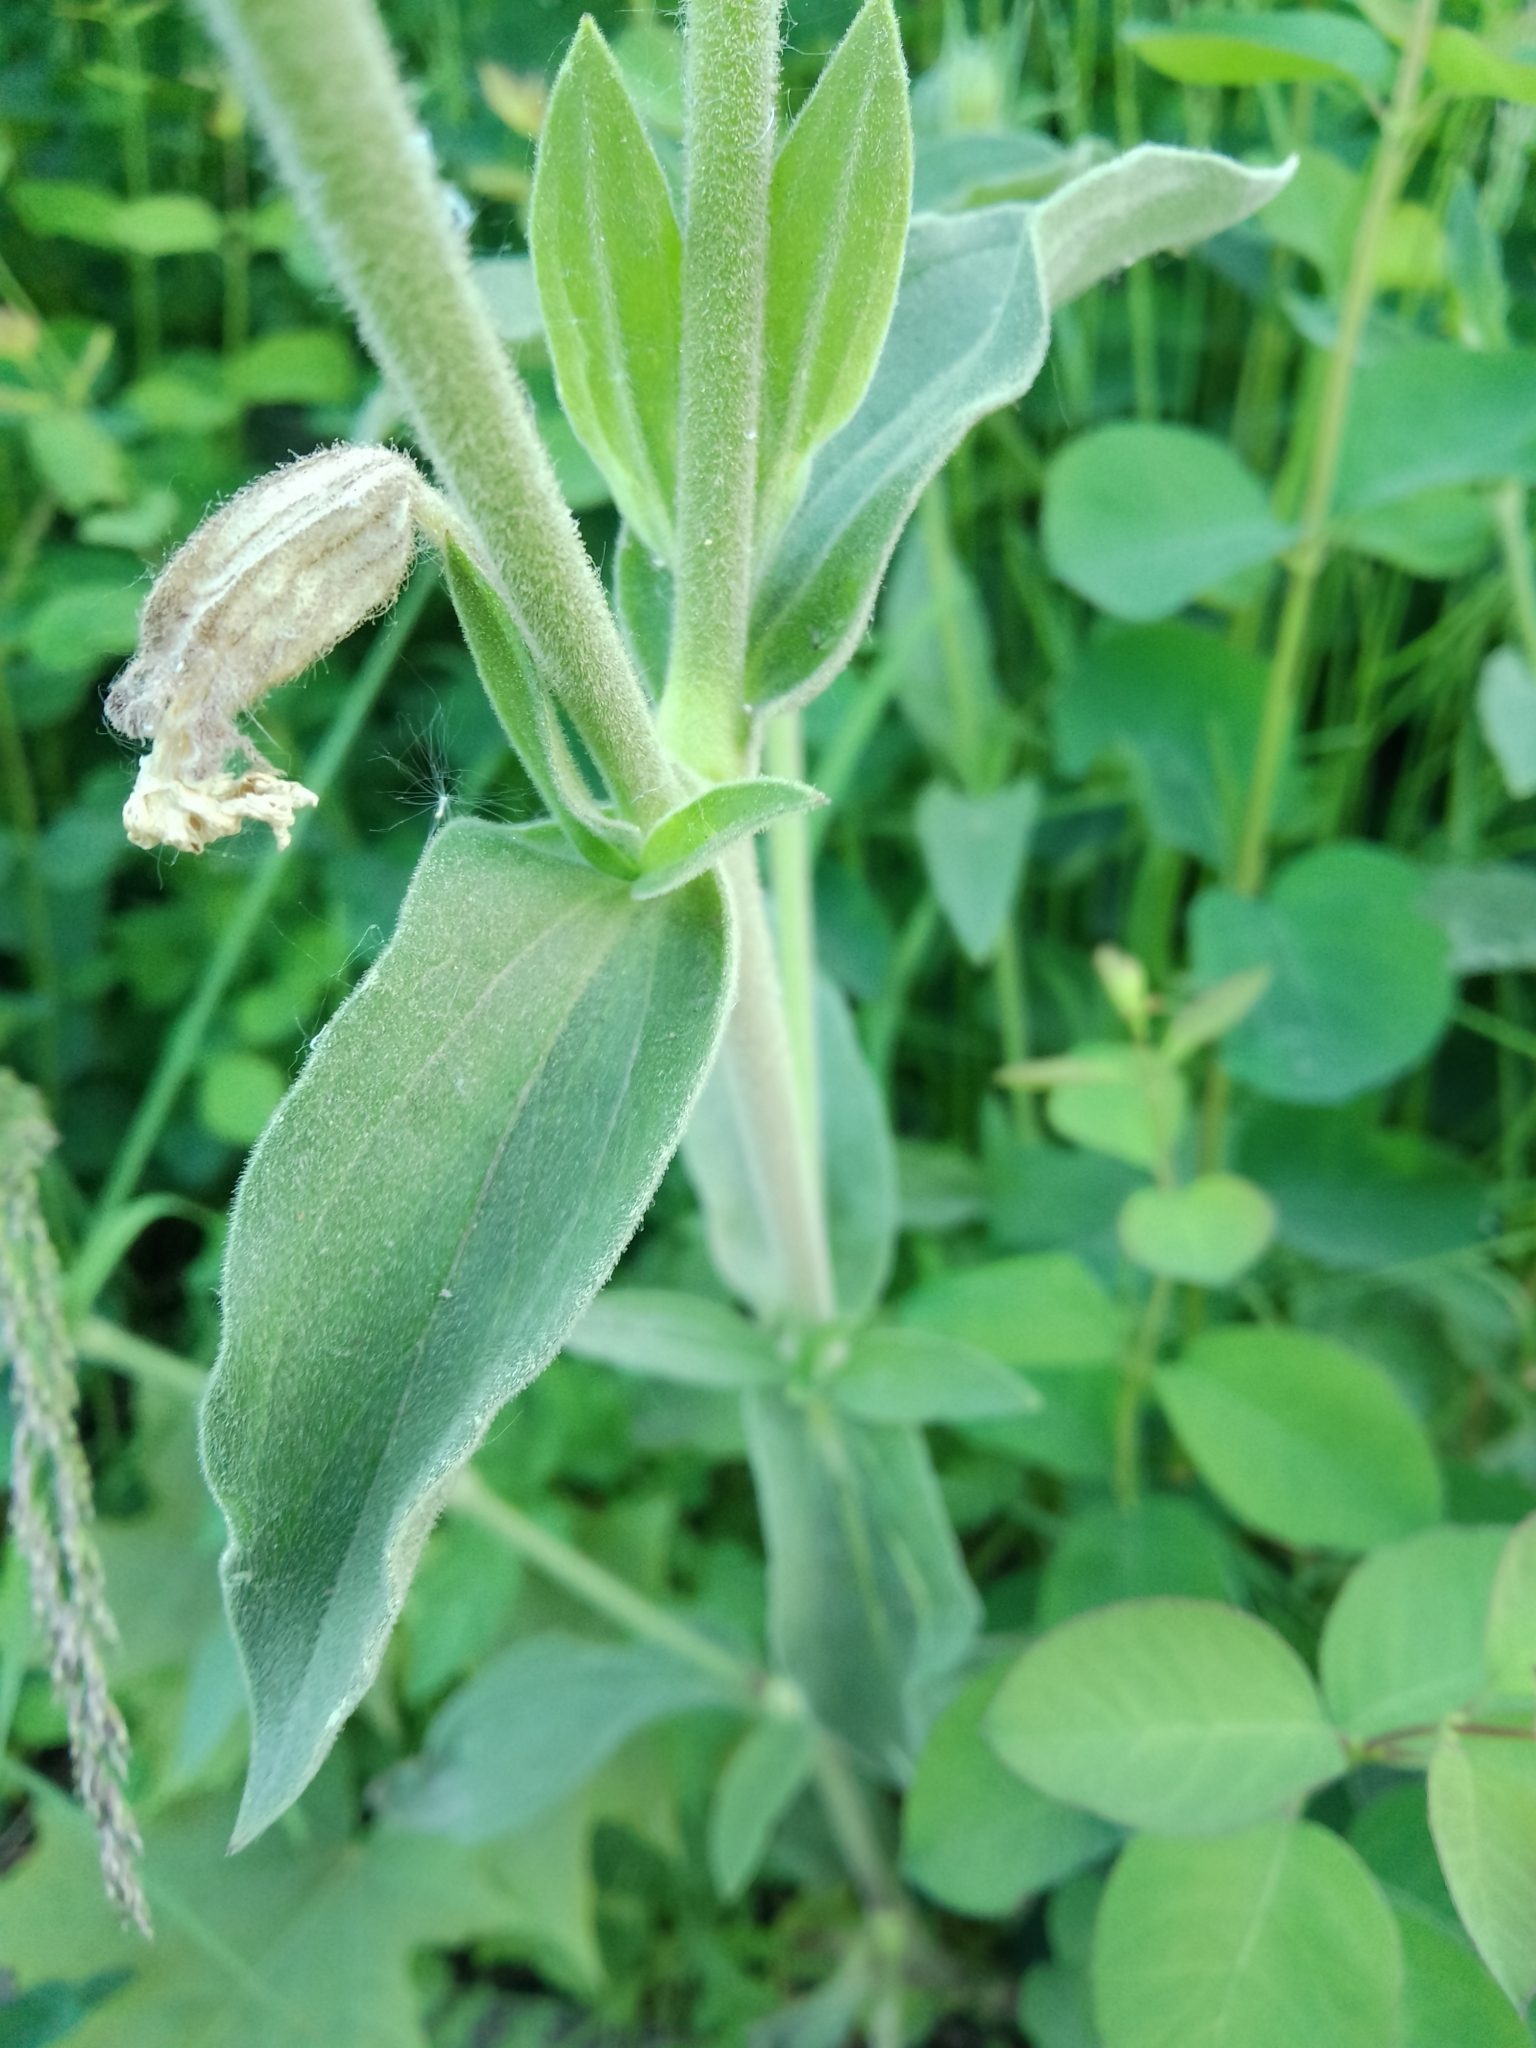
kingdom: Plantae
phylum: Tracheophyta
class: Magnoliopsida
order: Caryophyllales
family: Caryophyllaceae
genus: Silene
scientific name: Silene latifolia
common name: White campion
